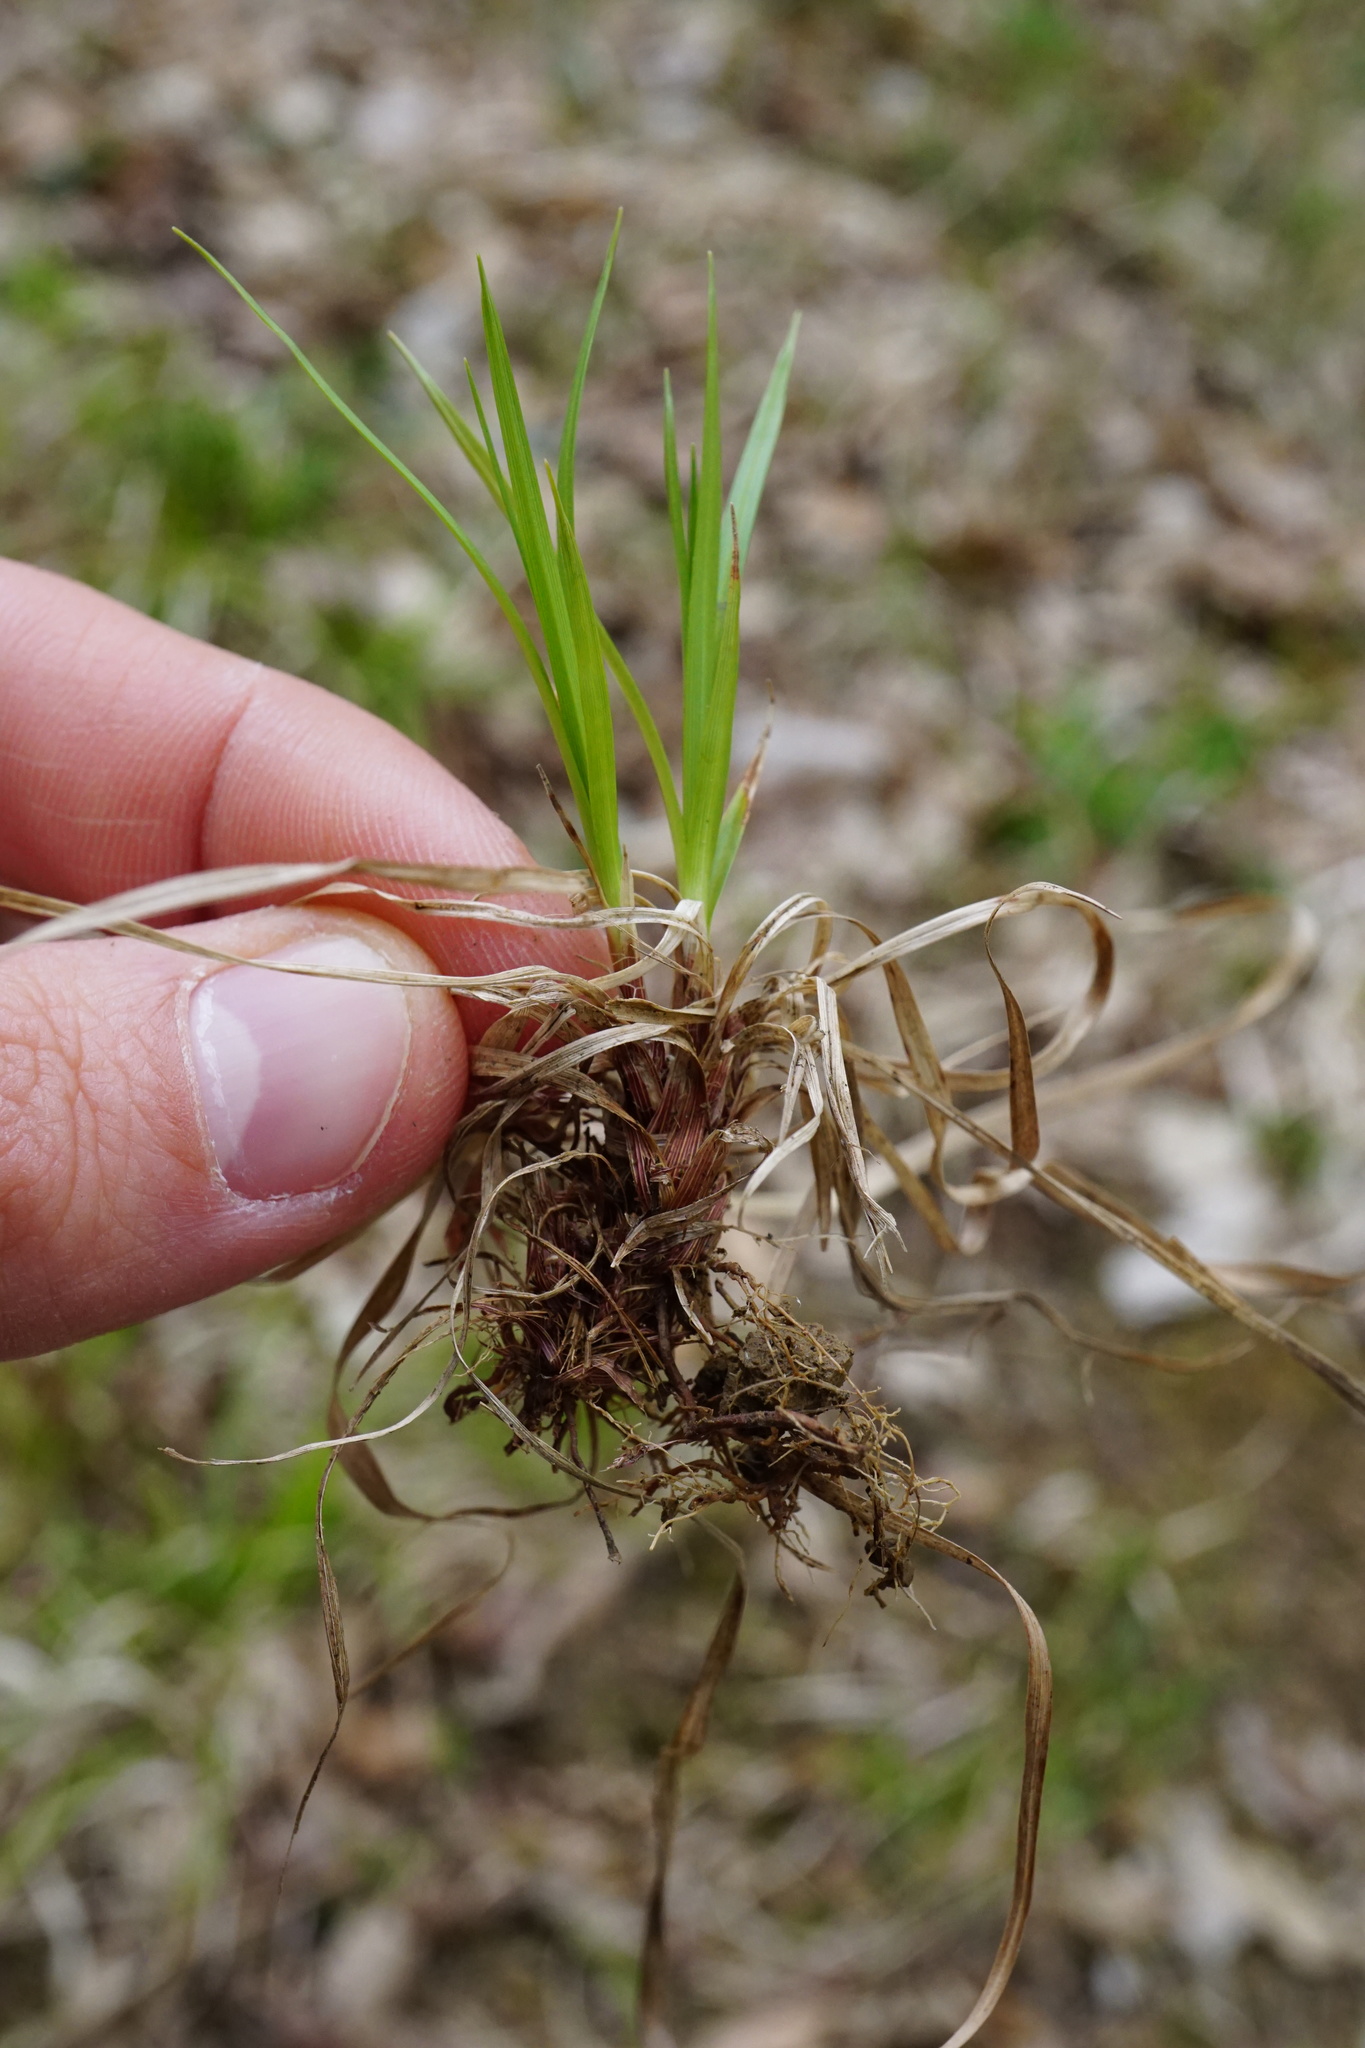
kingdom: Plantae
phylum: Tracheophyta
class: Liliopsida
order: Poales
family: Cyperaceae
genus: Carex
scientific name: Carex montana
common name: Soft-leaved sedge
